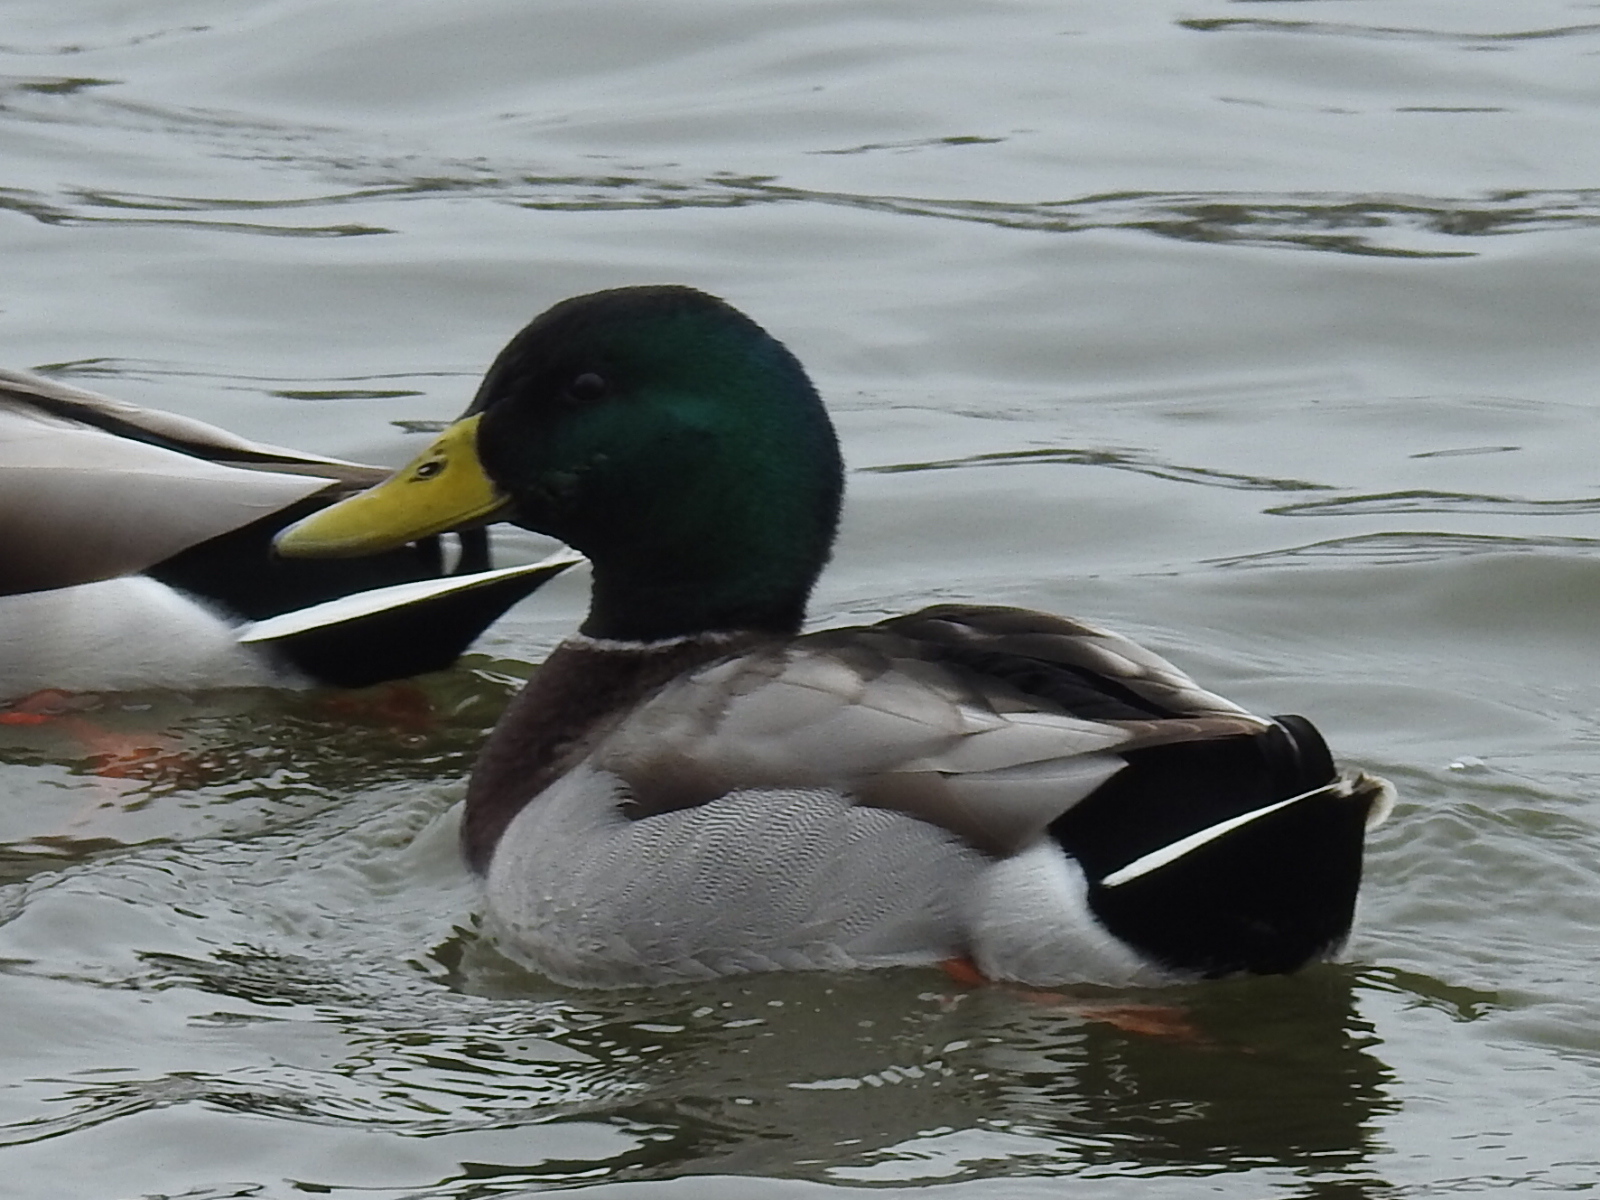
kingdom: Animalia
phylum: Chordata
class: Aves
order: Anseriformes
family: Anatidae
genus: Anas
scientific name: Anas platyrhynchos
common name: Mallard
